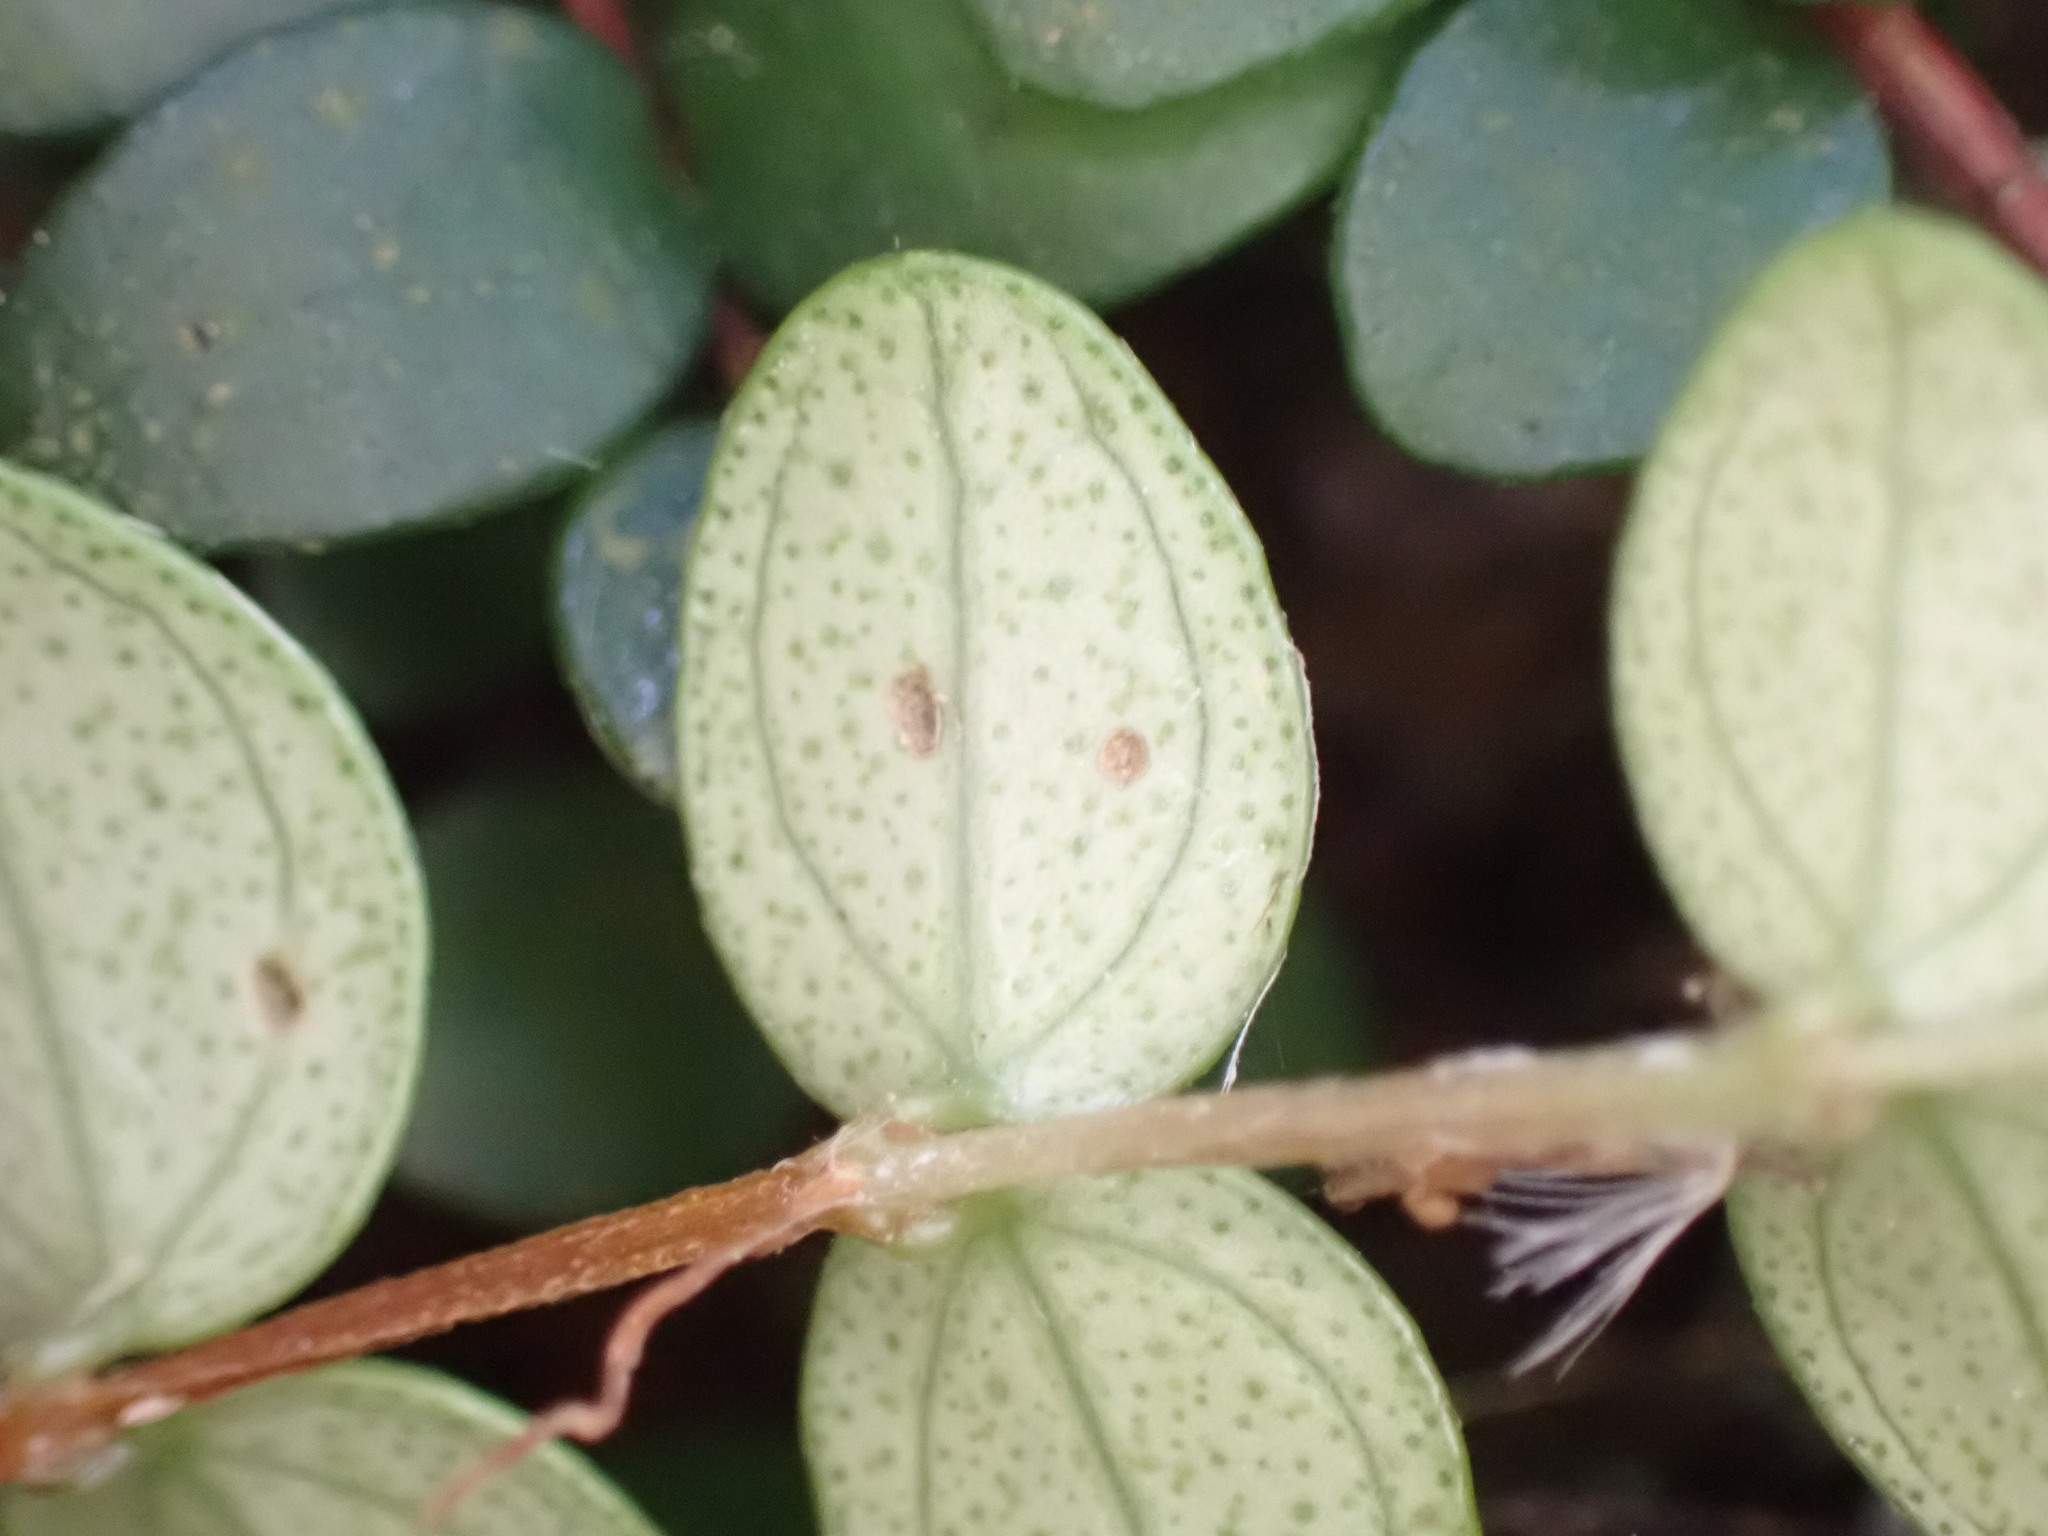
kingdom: Plantae
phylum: Tracheophyta
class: Magnoliopsida
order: Myrtales
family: Myrtaceae
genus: Metrosideros
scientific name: Metrosideros perforata
